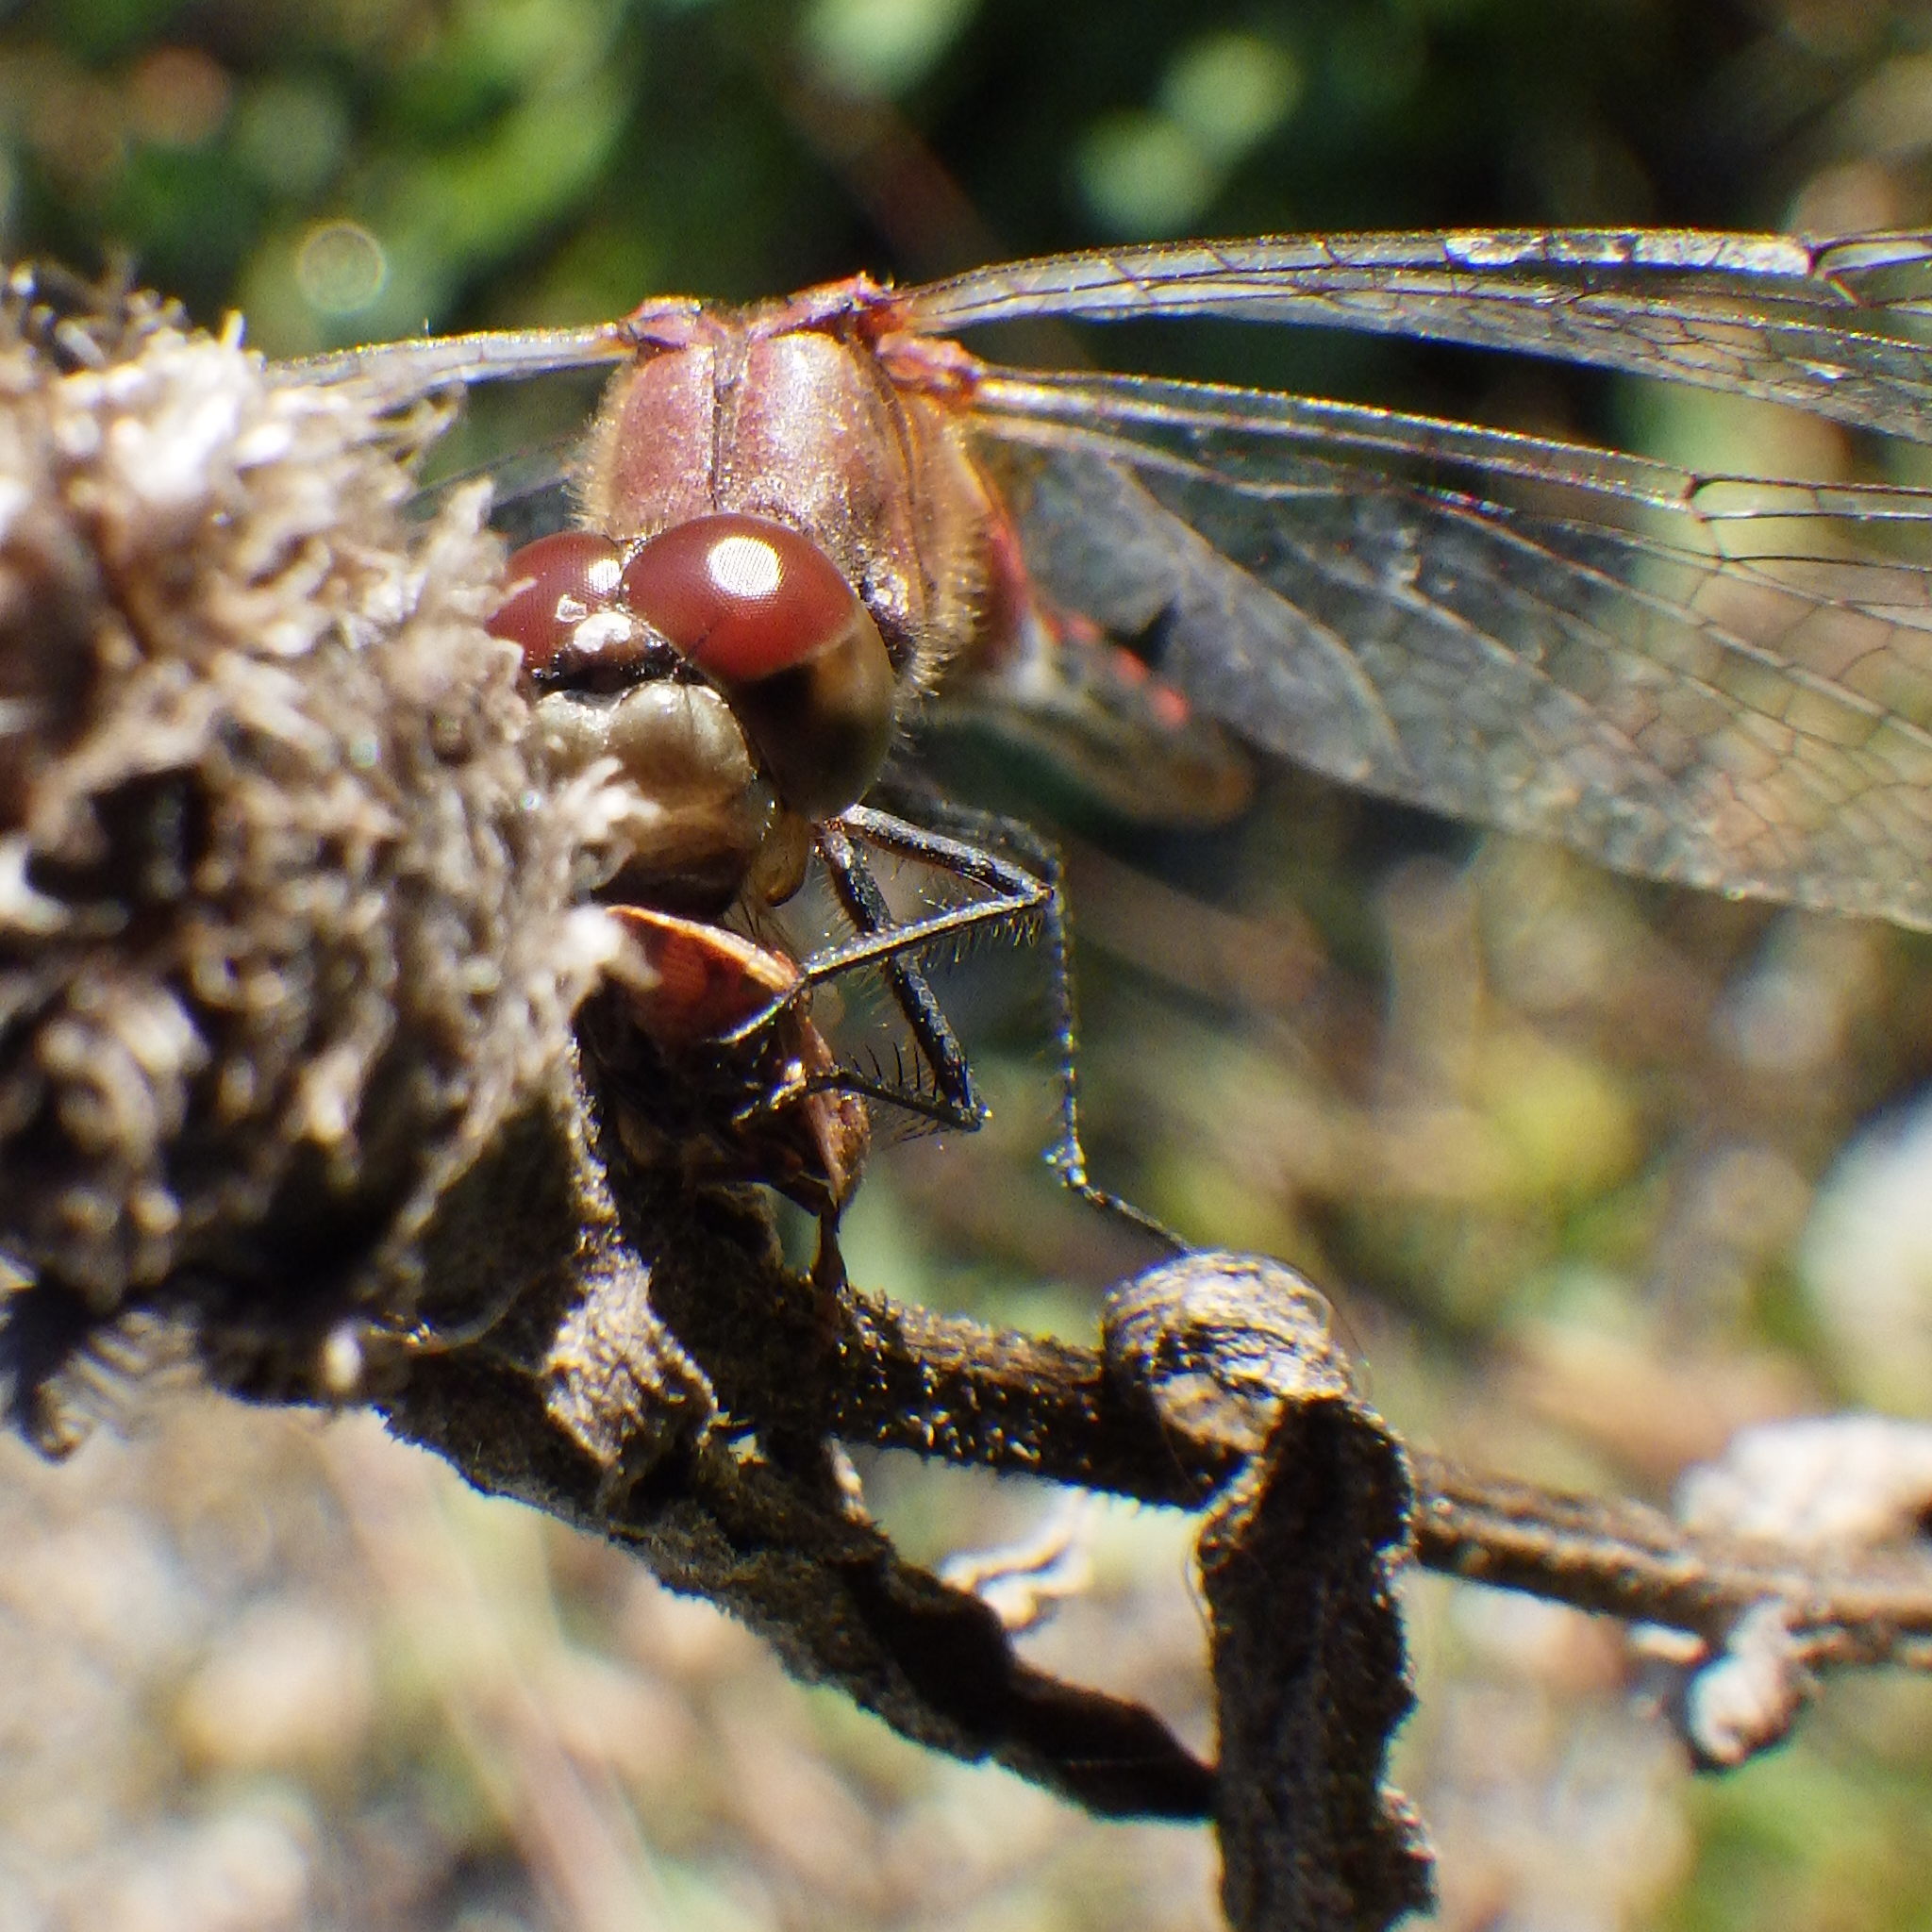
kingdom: Animalia
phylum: Arthropoda
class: Insecta
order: Odonata
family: Libellulidae
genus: Sympetrum
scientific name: Sympetrum obtrusum
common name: White-faced meadowhawk
